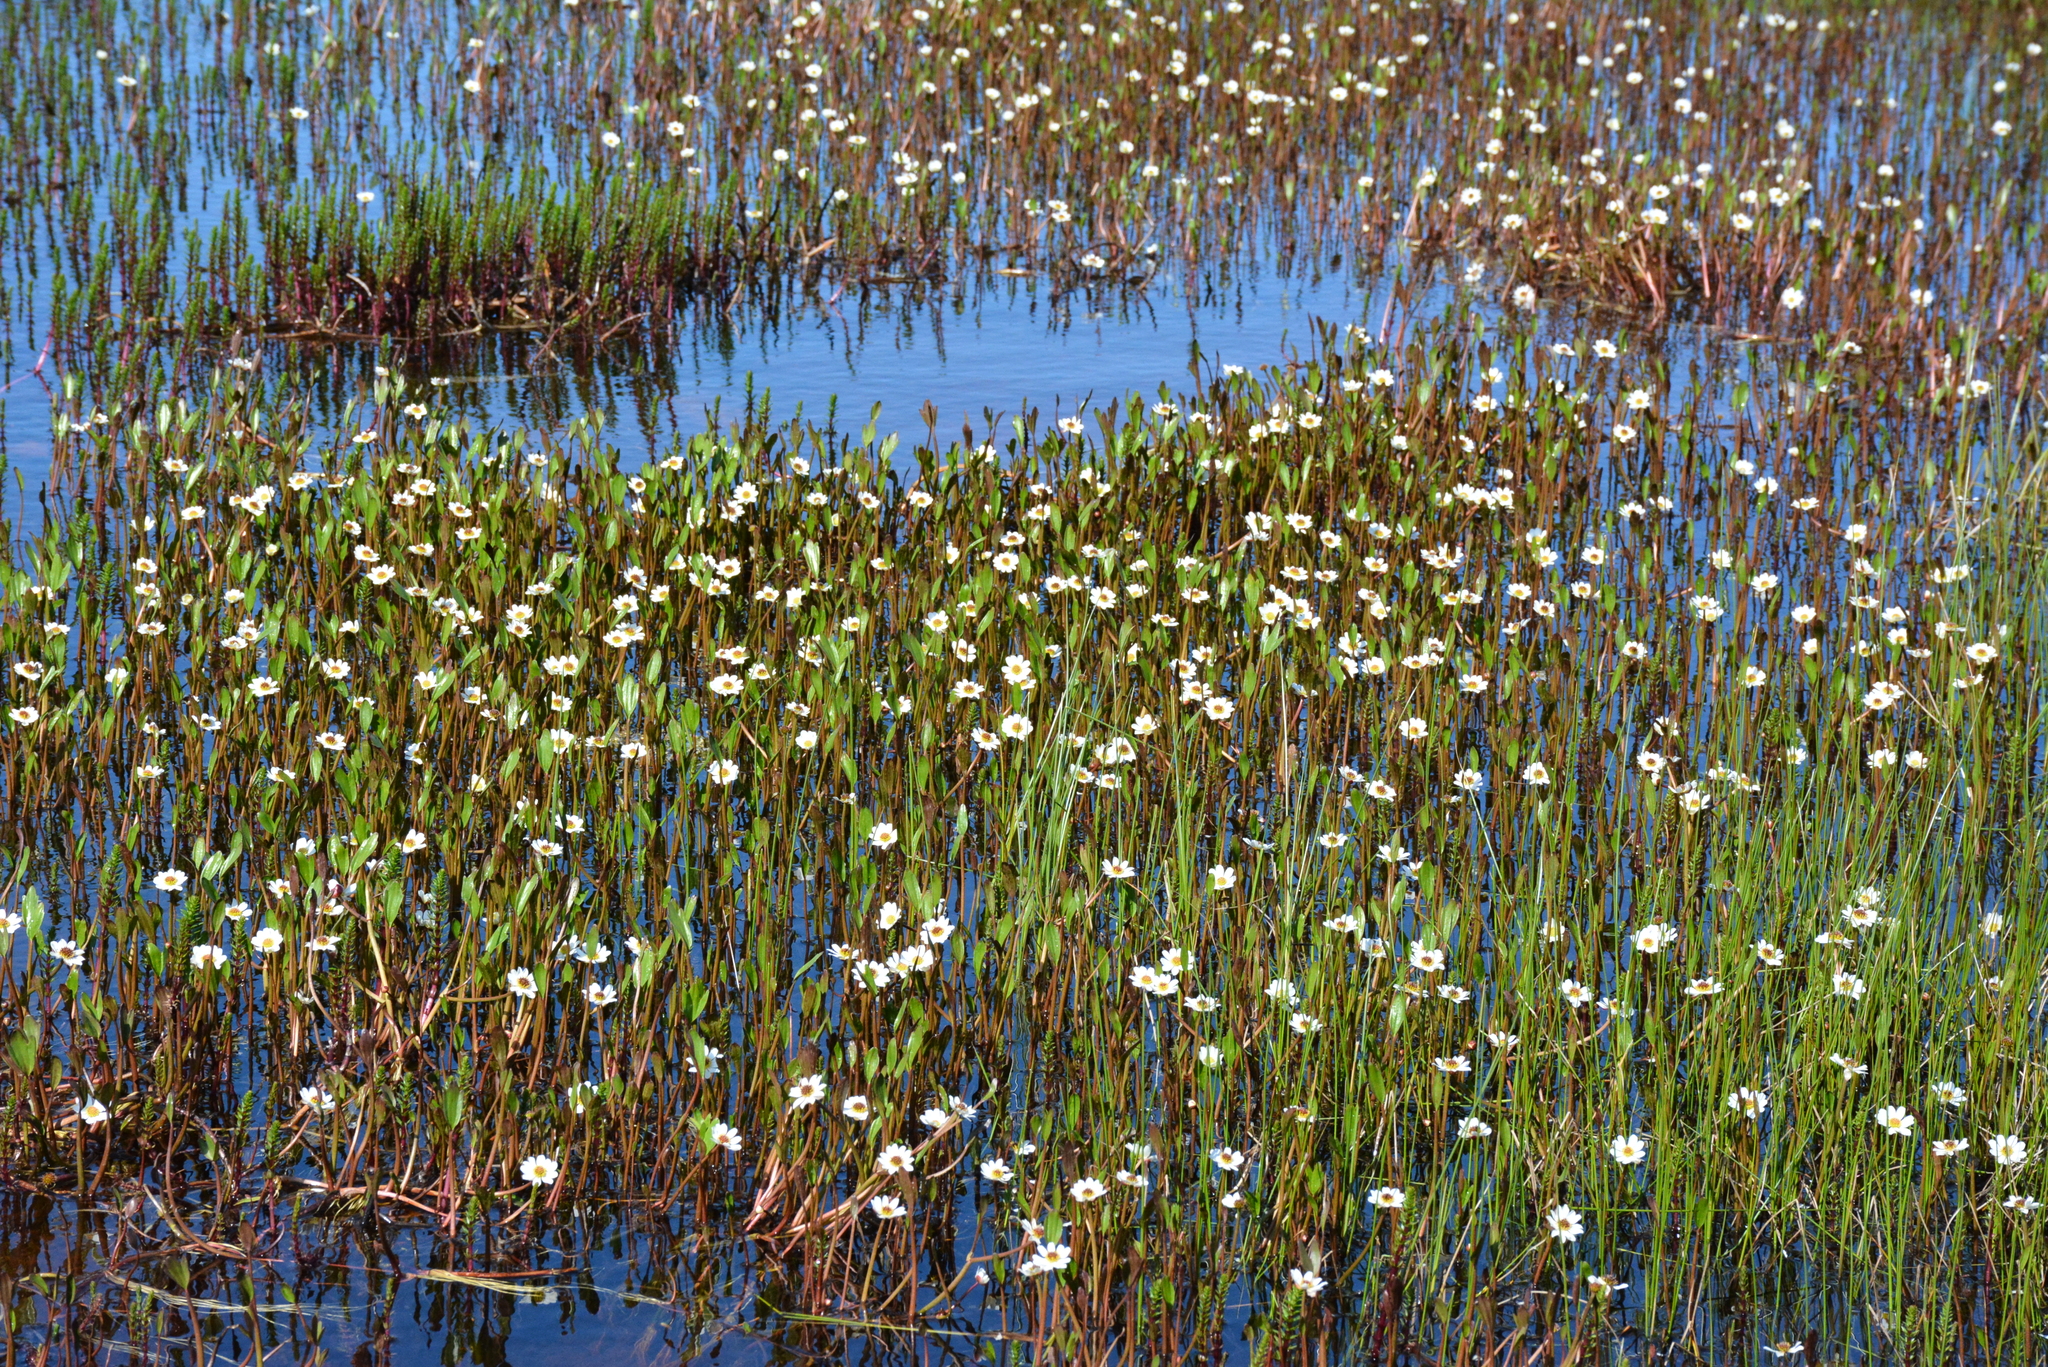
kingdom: Plantae
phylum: Tracheophyta
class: Magnoliopsida
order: Ranunculales
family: Ranunculaceae
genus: Coptidium
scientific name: Coptidium pallasii
